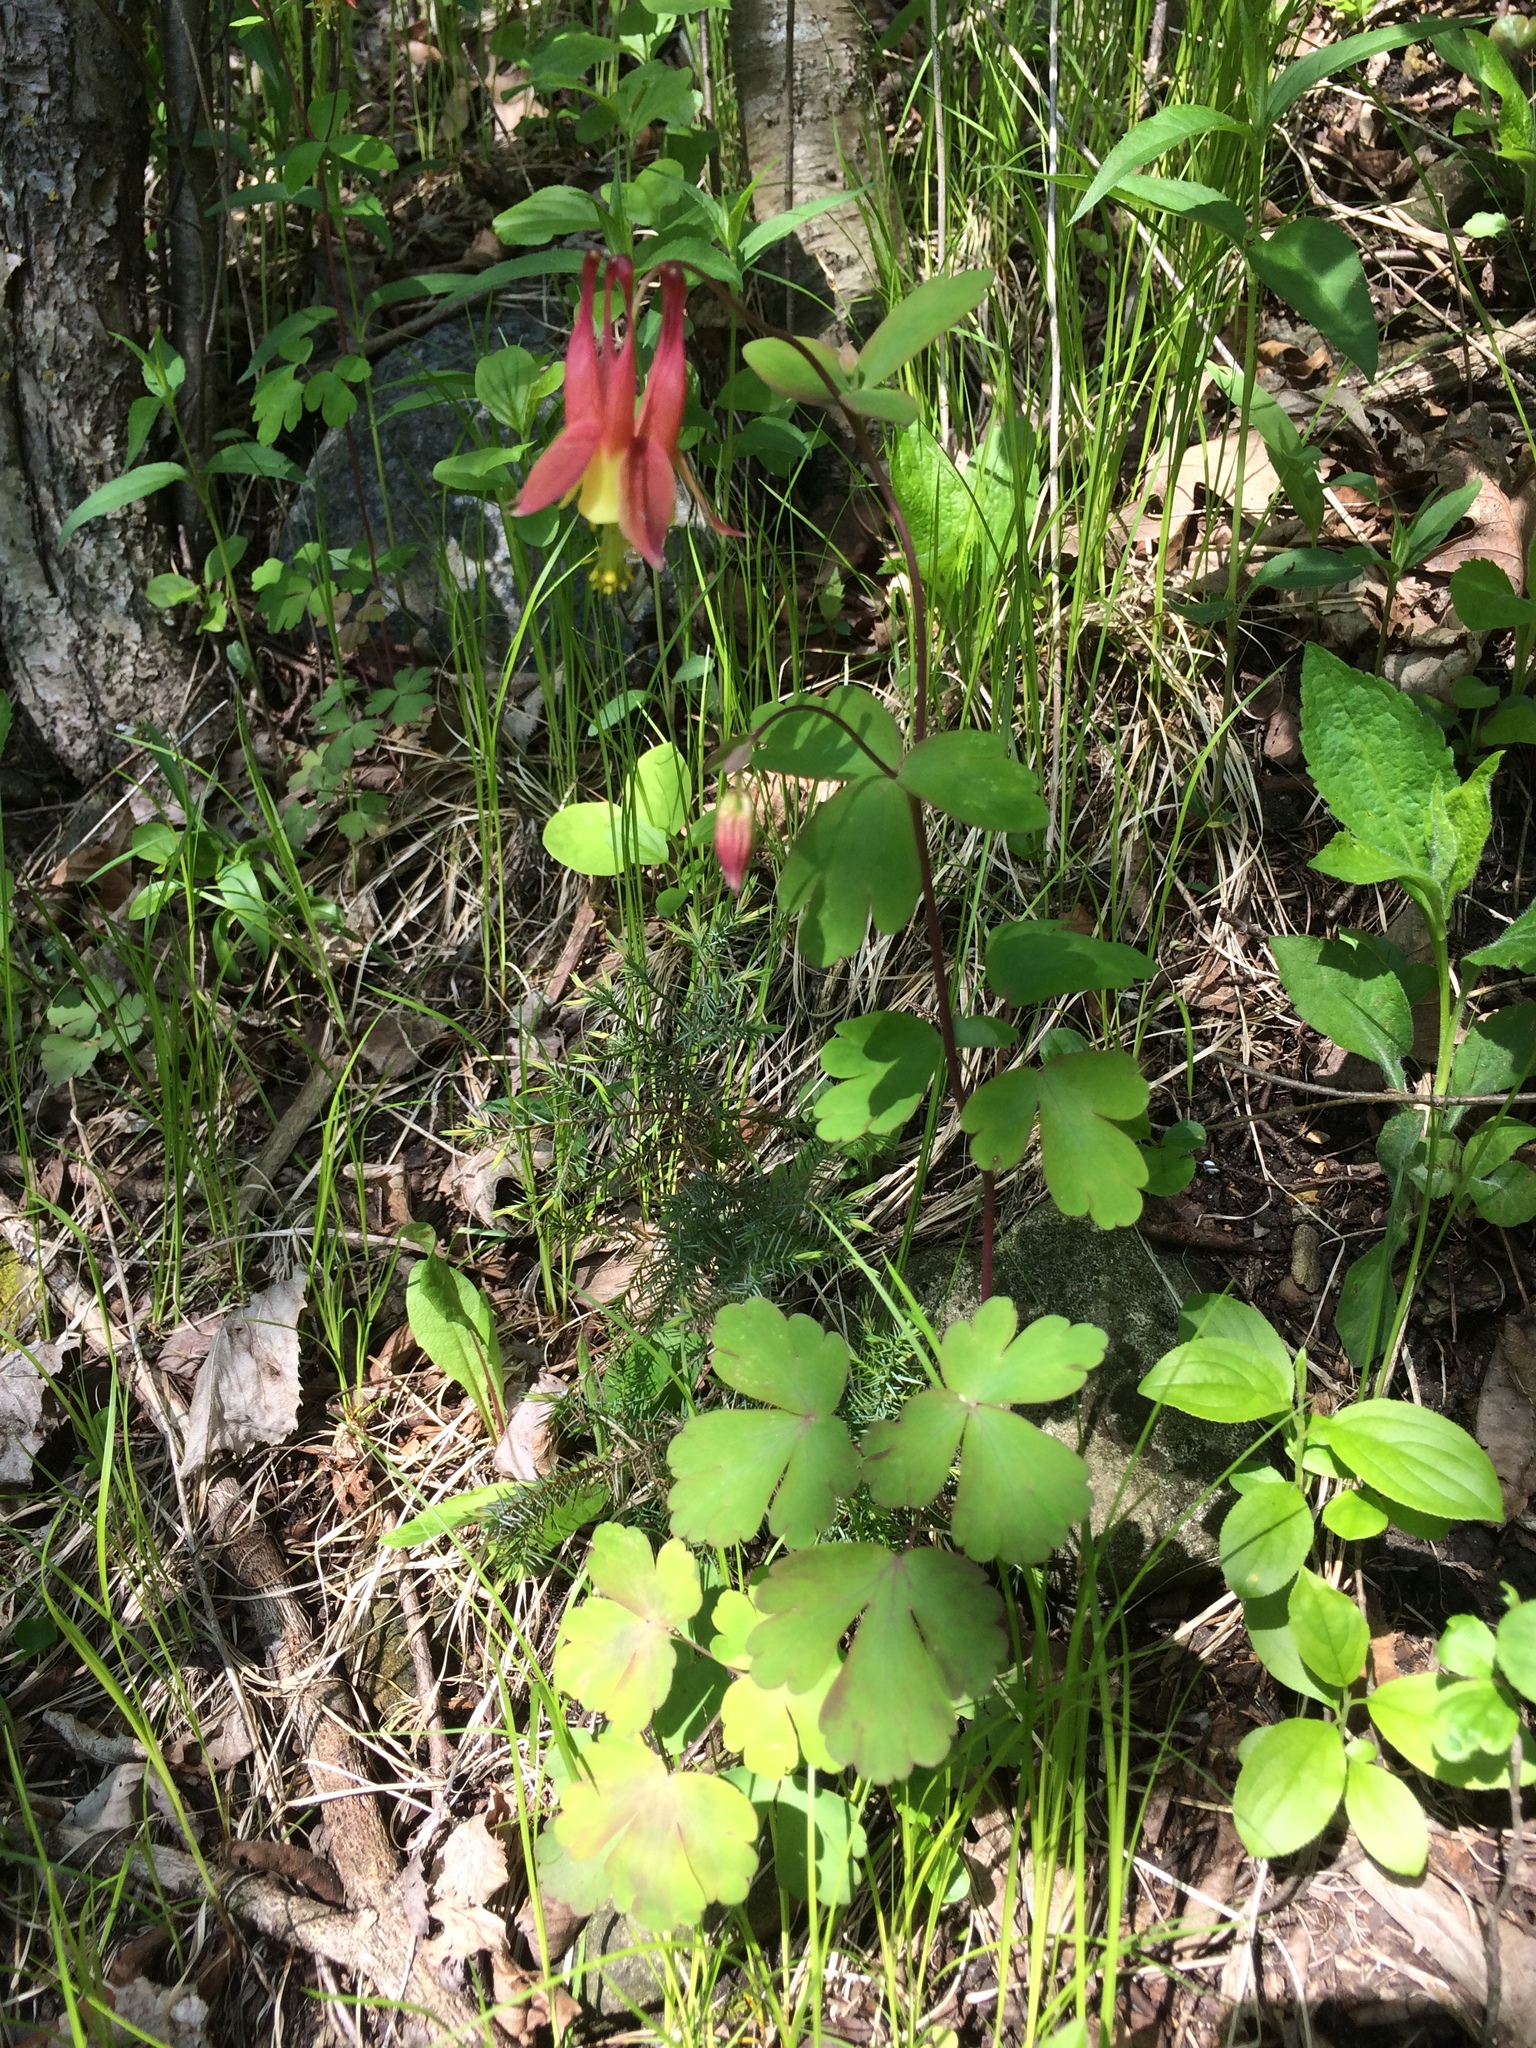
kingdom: Plantae
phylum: Tracheophyta
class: Magnoliopsida
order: Ranunculales
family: Ranunculaceae
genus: Aquilegia
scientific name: Aquilegia canadensis
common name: American columbine
